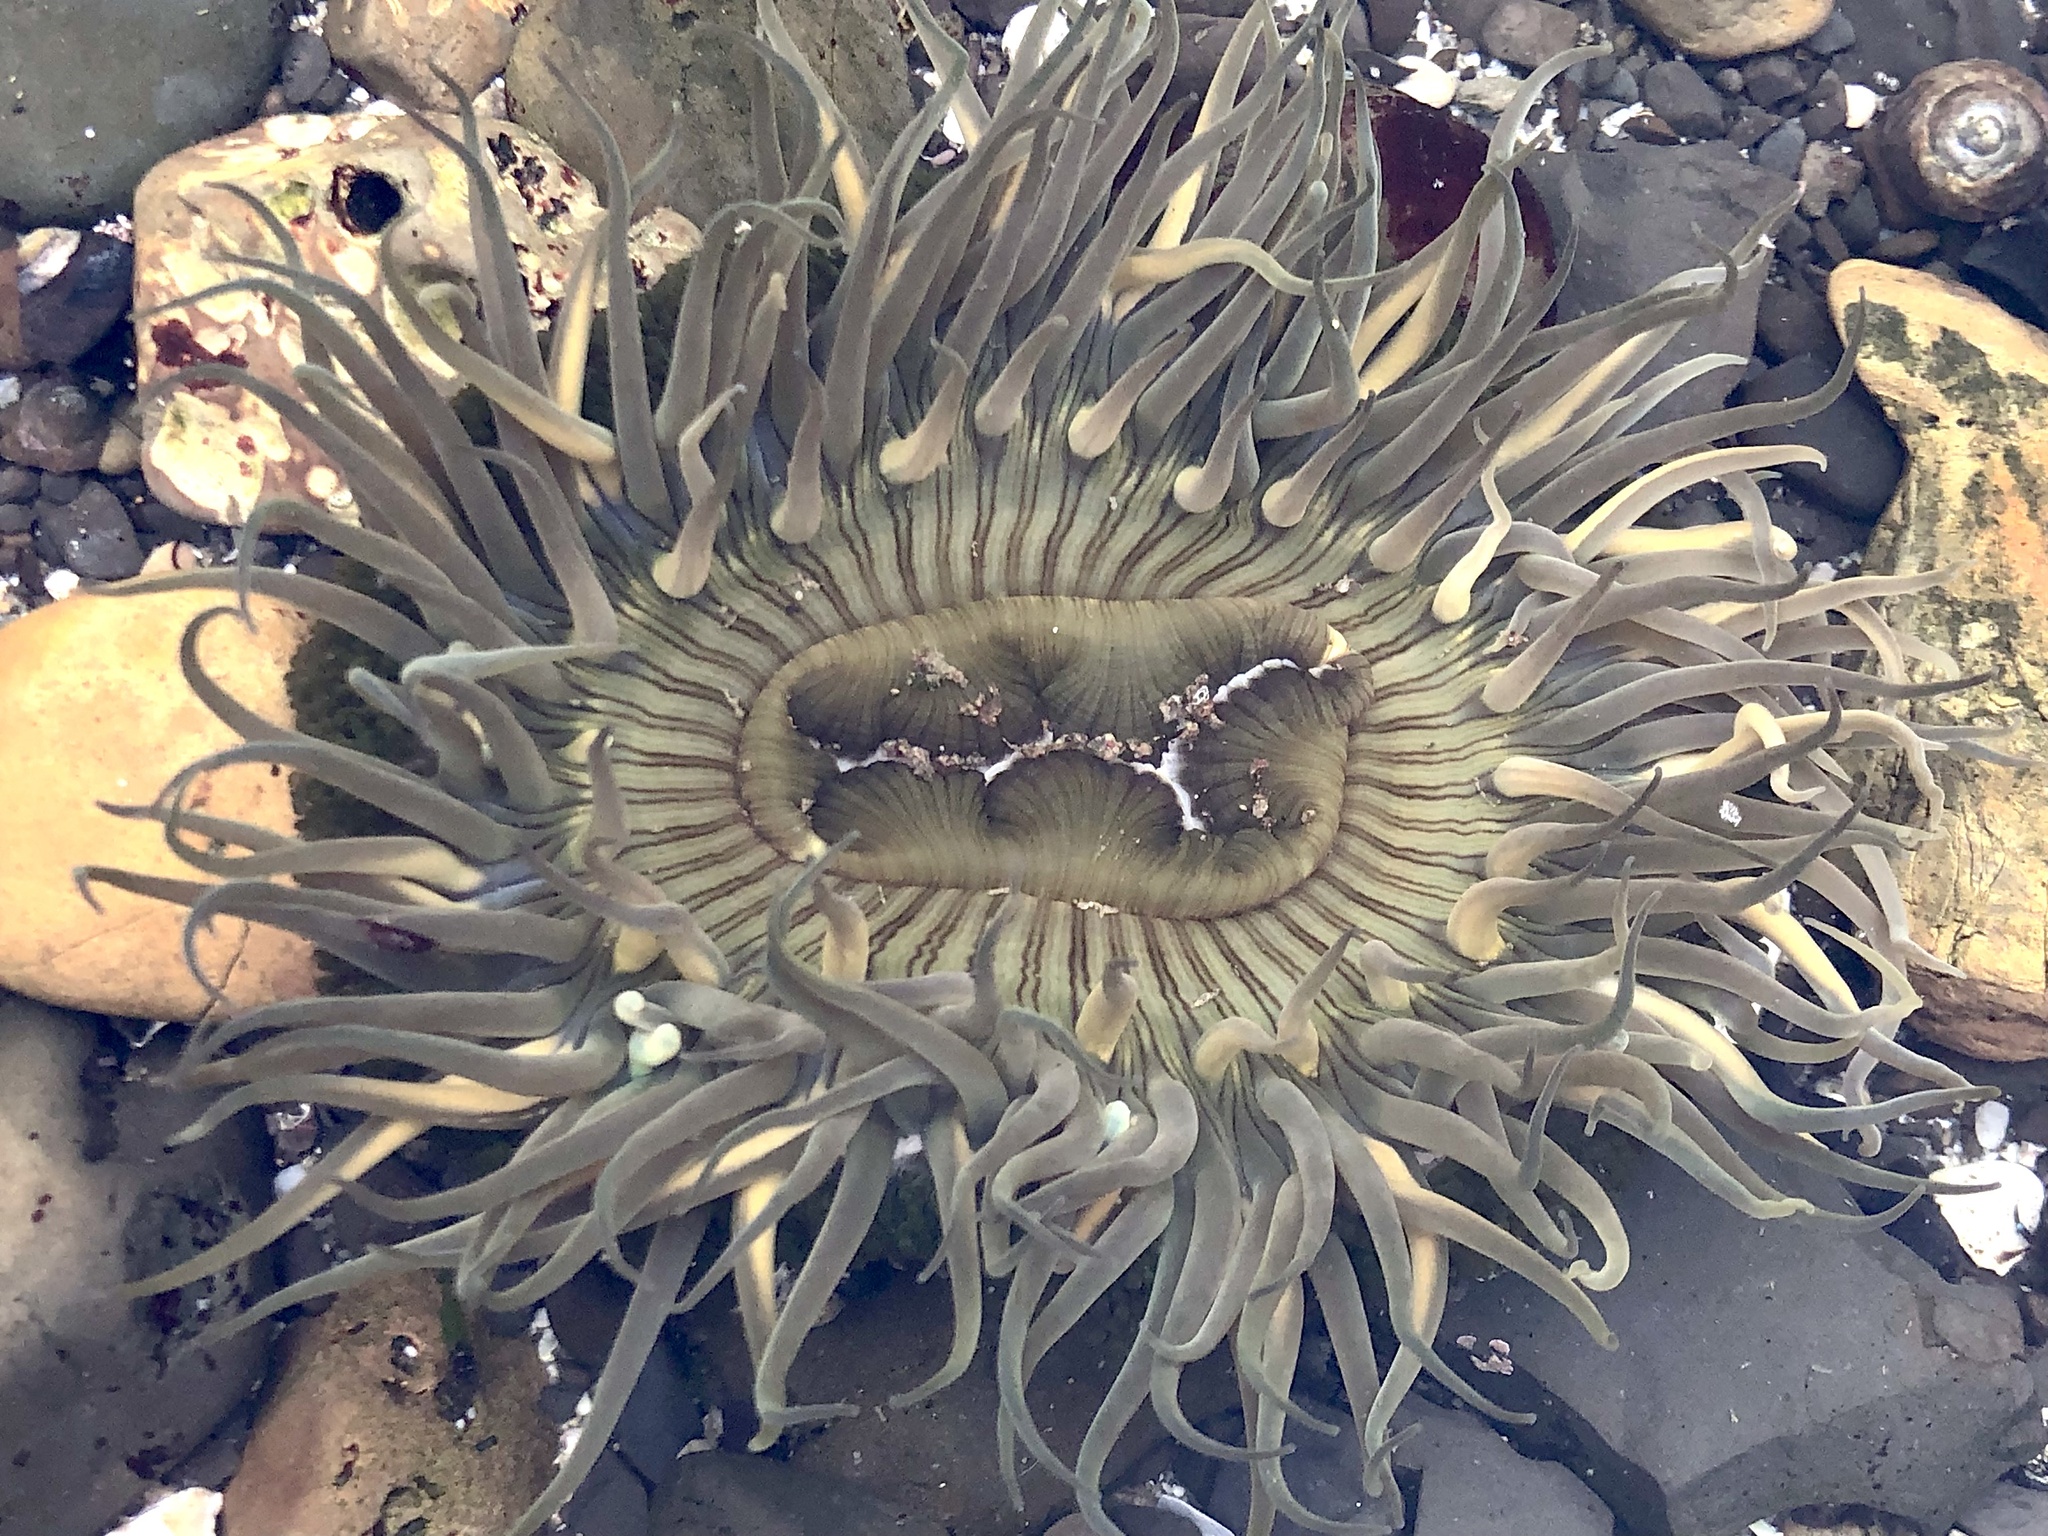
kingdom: Animalia
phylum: Cnidaria
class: Anthozoa
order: Actiniaria
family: Actiniidae
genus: Anthopleura
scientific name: Anthopleura sola
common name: Sun anemone
